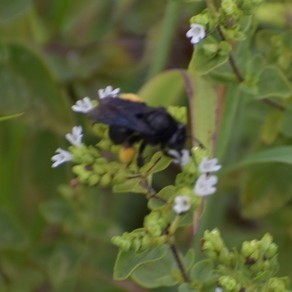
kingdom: Animalia
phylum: Arthropoda
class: Insecta
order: Hymenoptera
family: Apidae
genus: Melissodes
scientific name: Melissodes bimaculatus
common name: Two-spotted long-horned bee
